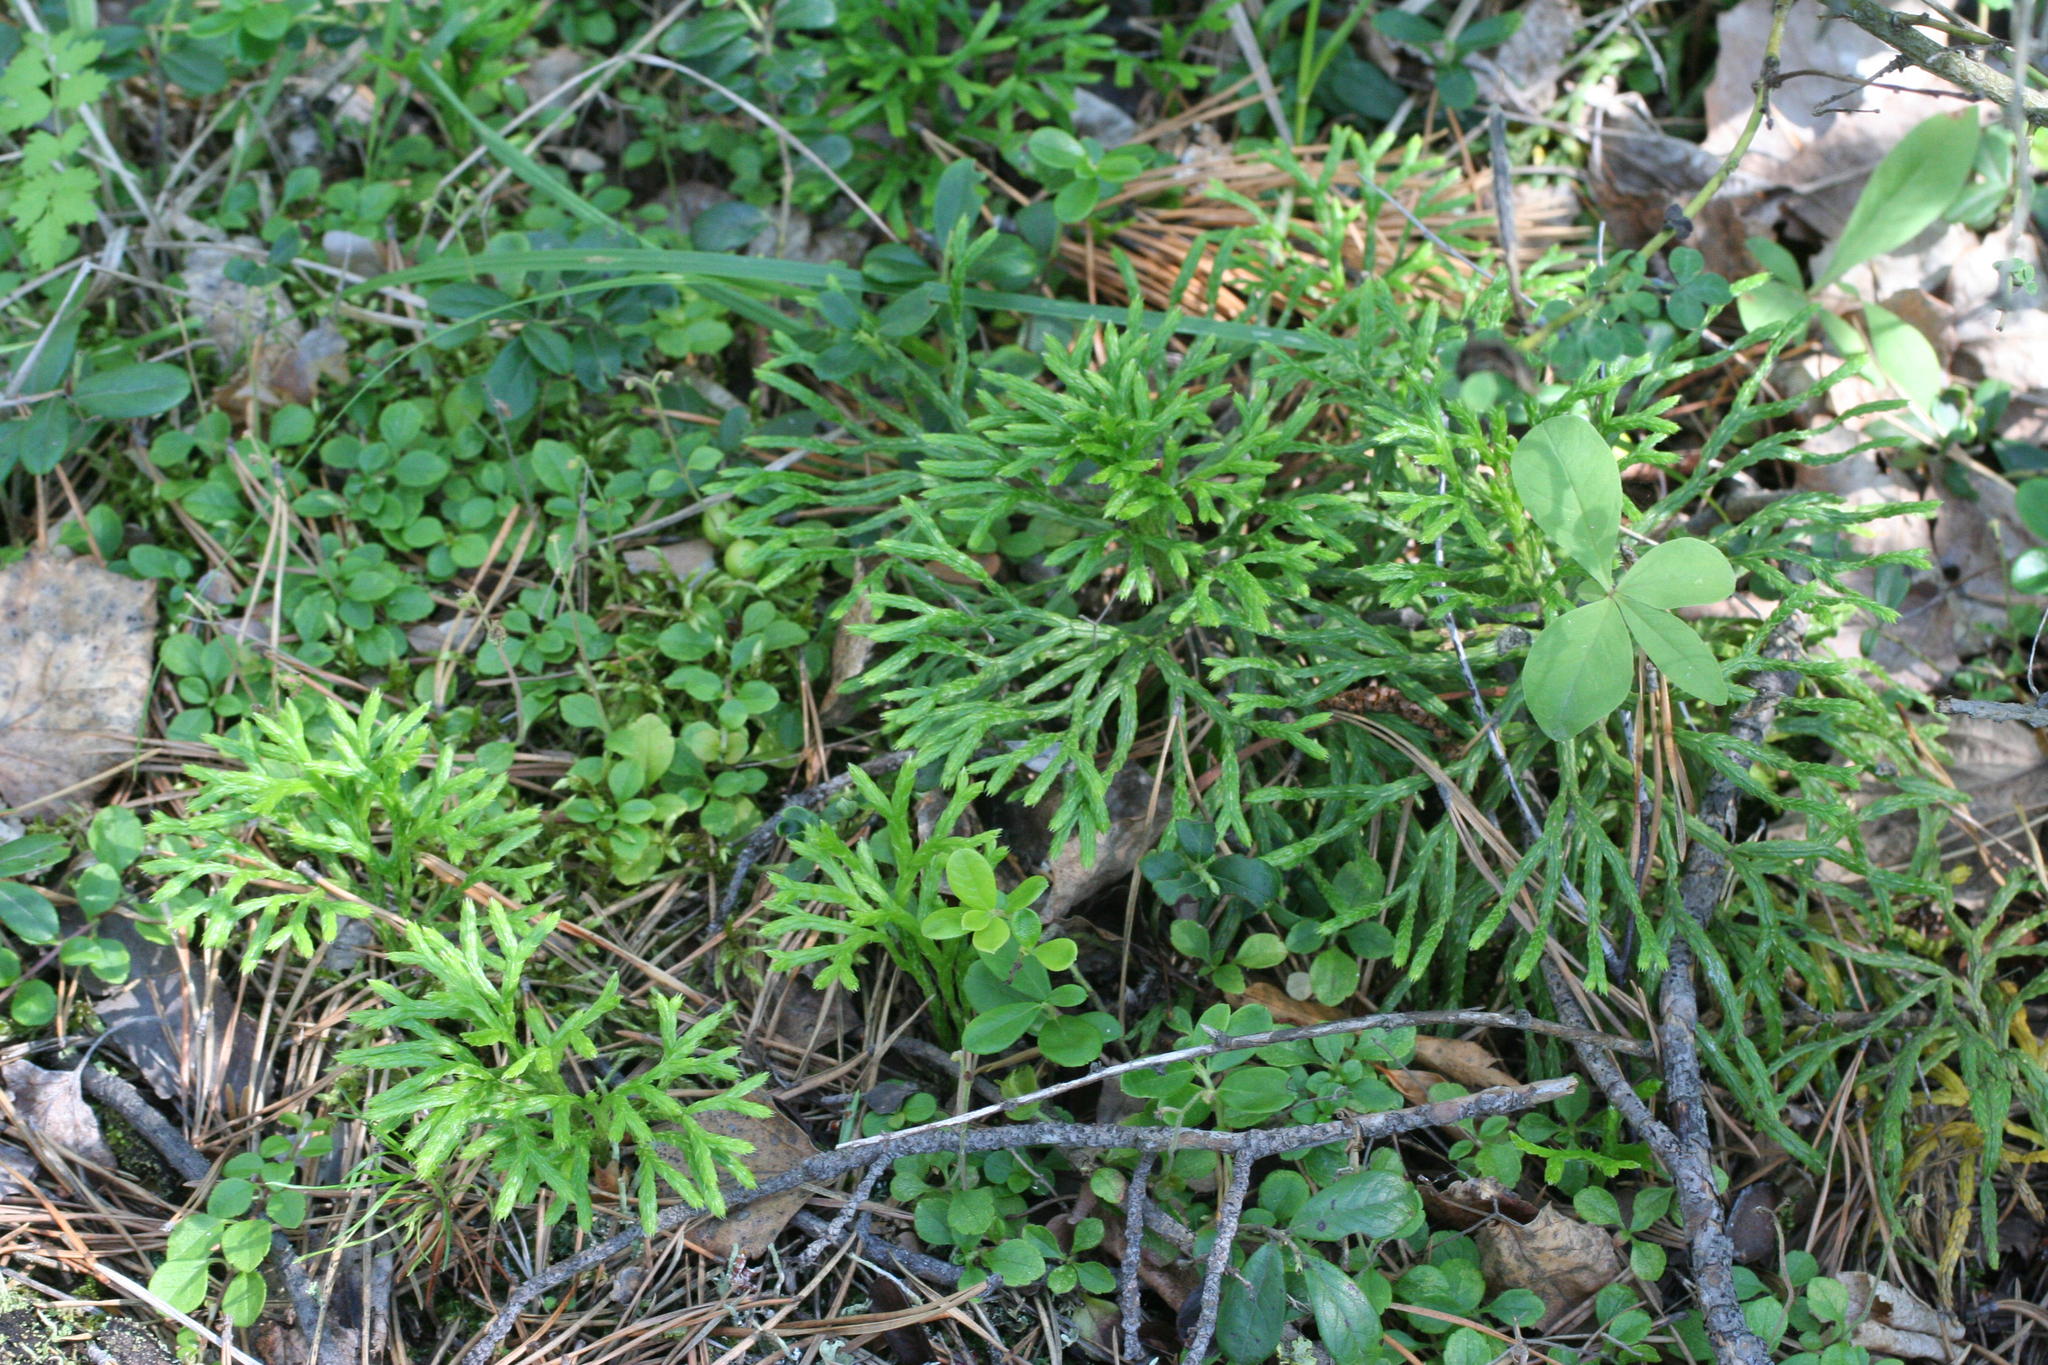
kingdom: Plantae
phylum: Tracheophyta
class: Lycopodiopsida
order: Lycopodiales
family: Lycopodiaceae
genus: Diphasiastrum
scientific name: Diphasiastrum complanatum
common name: Northern running-pine
